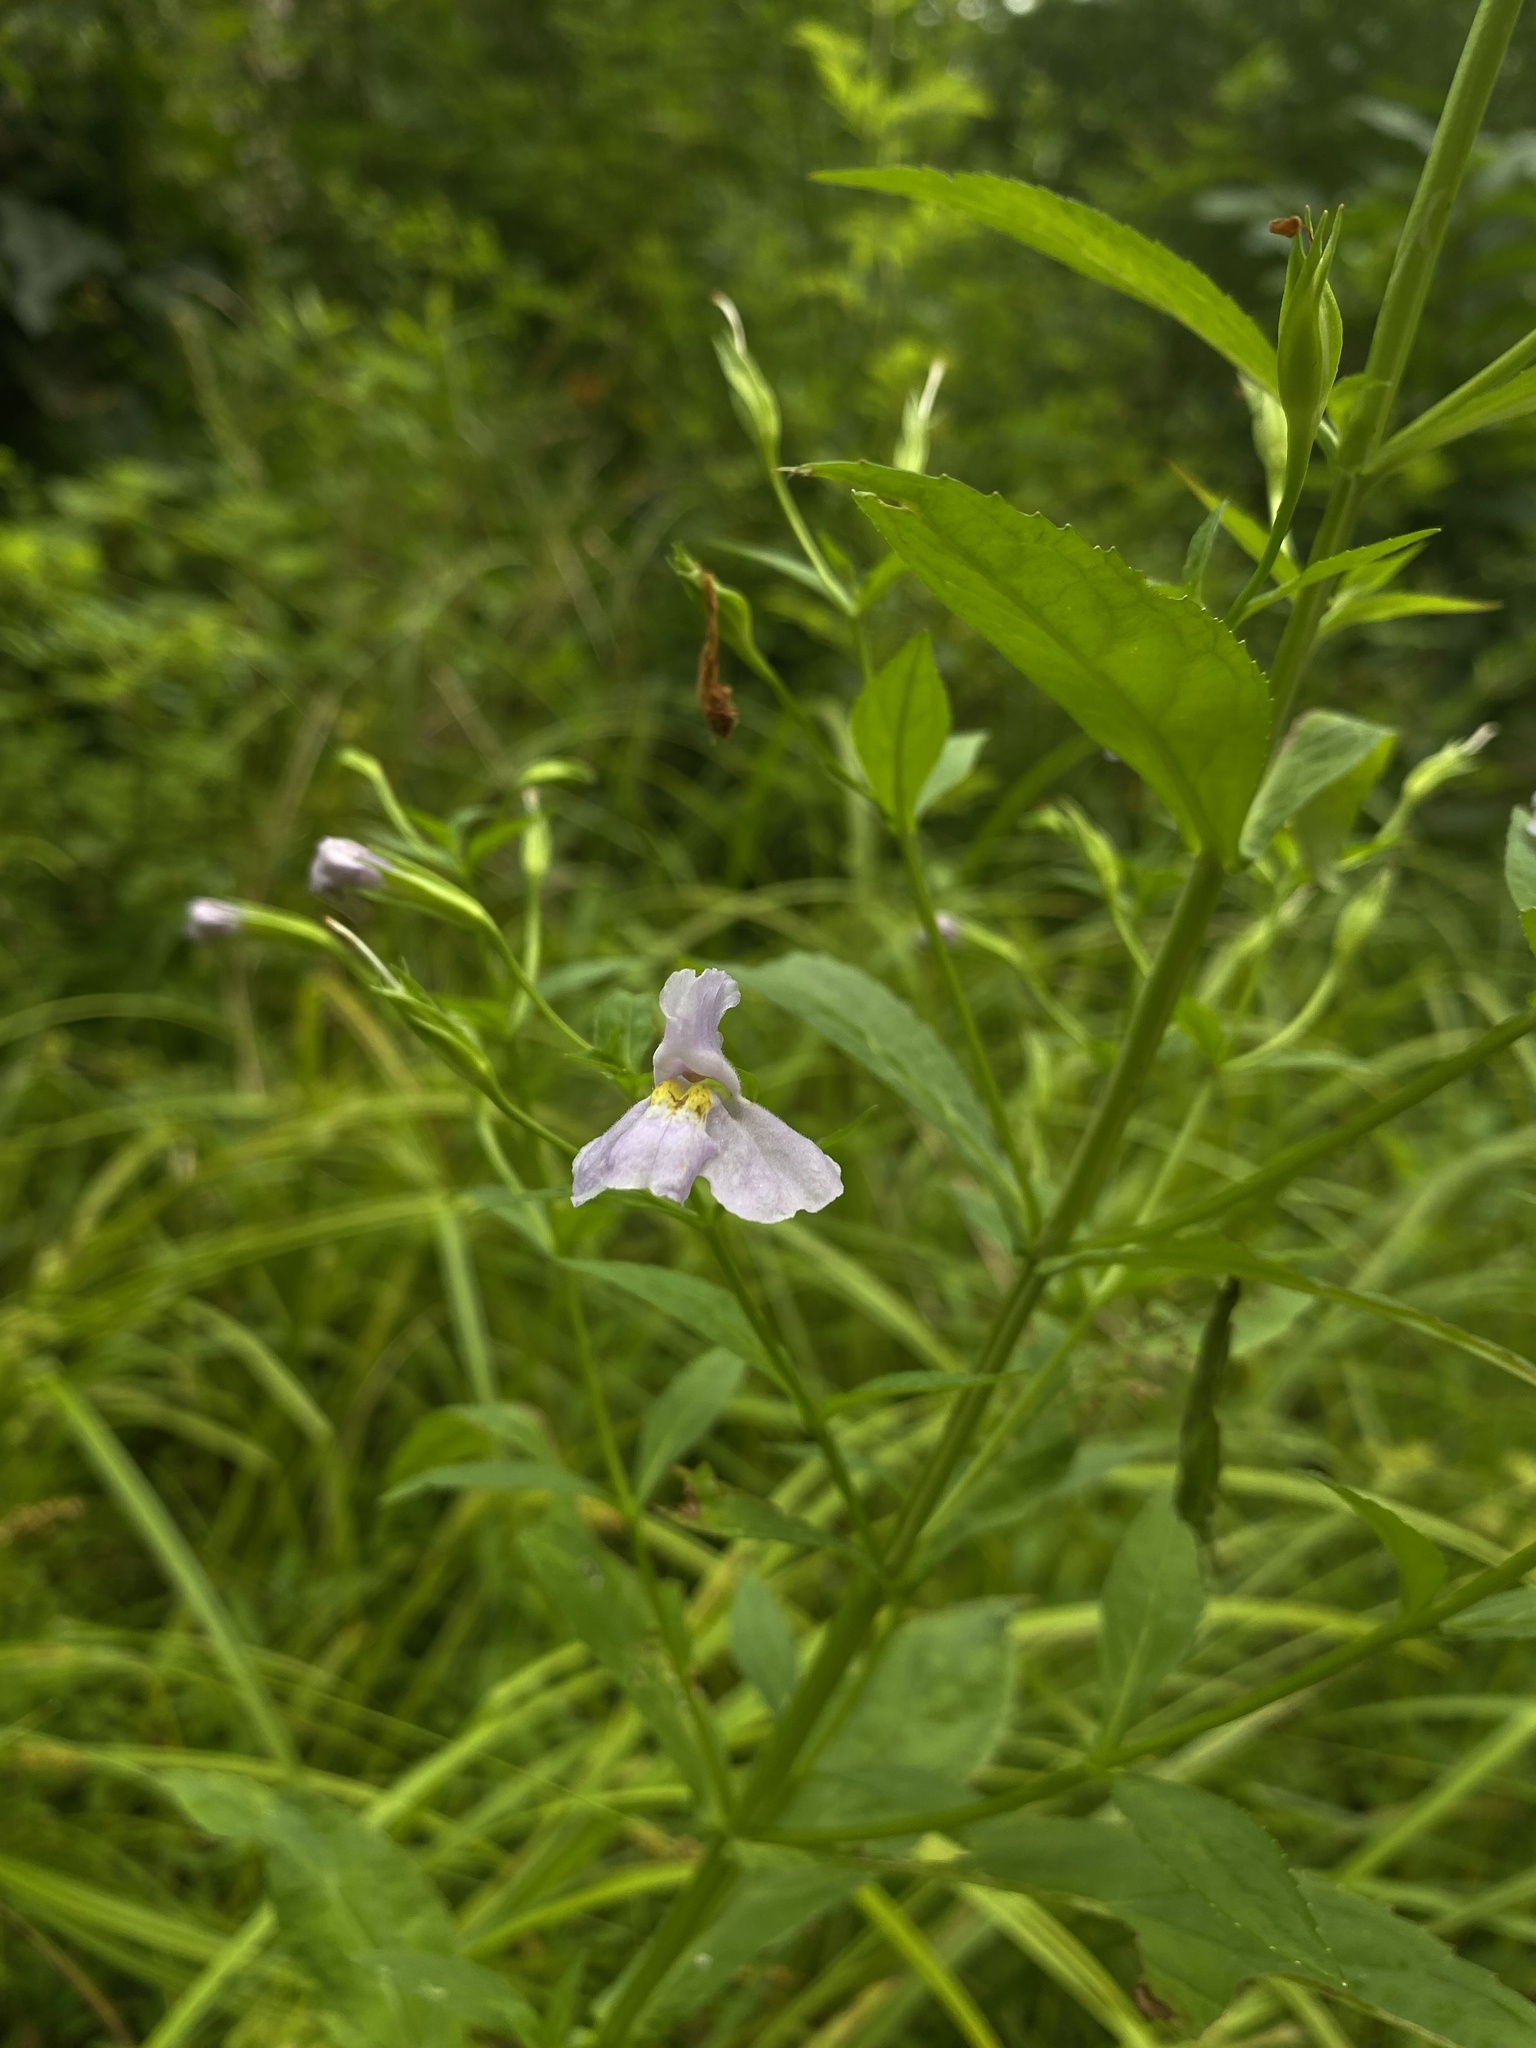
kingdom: Plantae
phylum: Tracheophyta
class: Magnoliopsida
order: Lamiales
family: Phrymaceae
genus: Mimulus
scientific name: Mimulus alatus
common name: Sharp-wing monkey-flower
